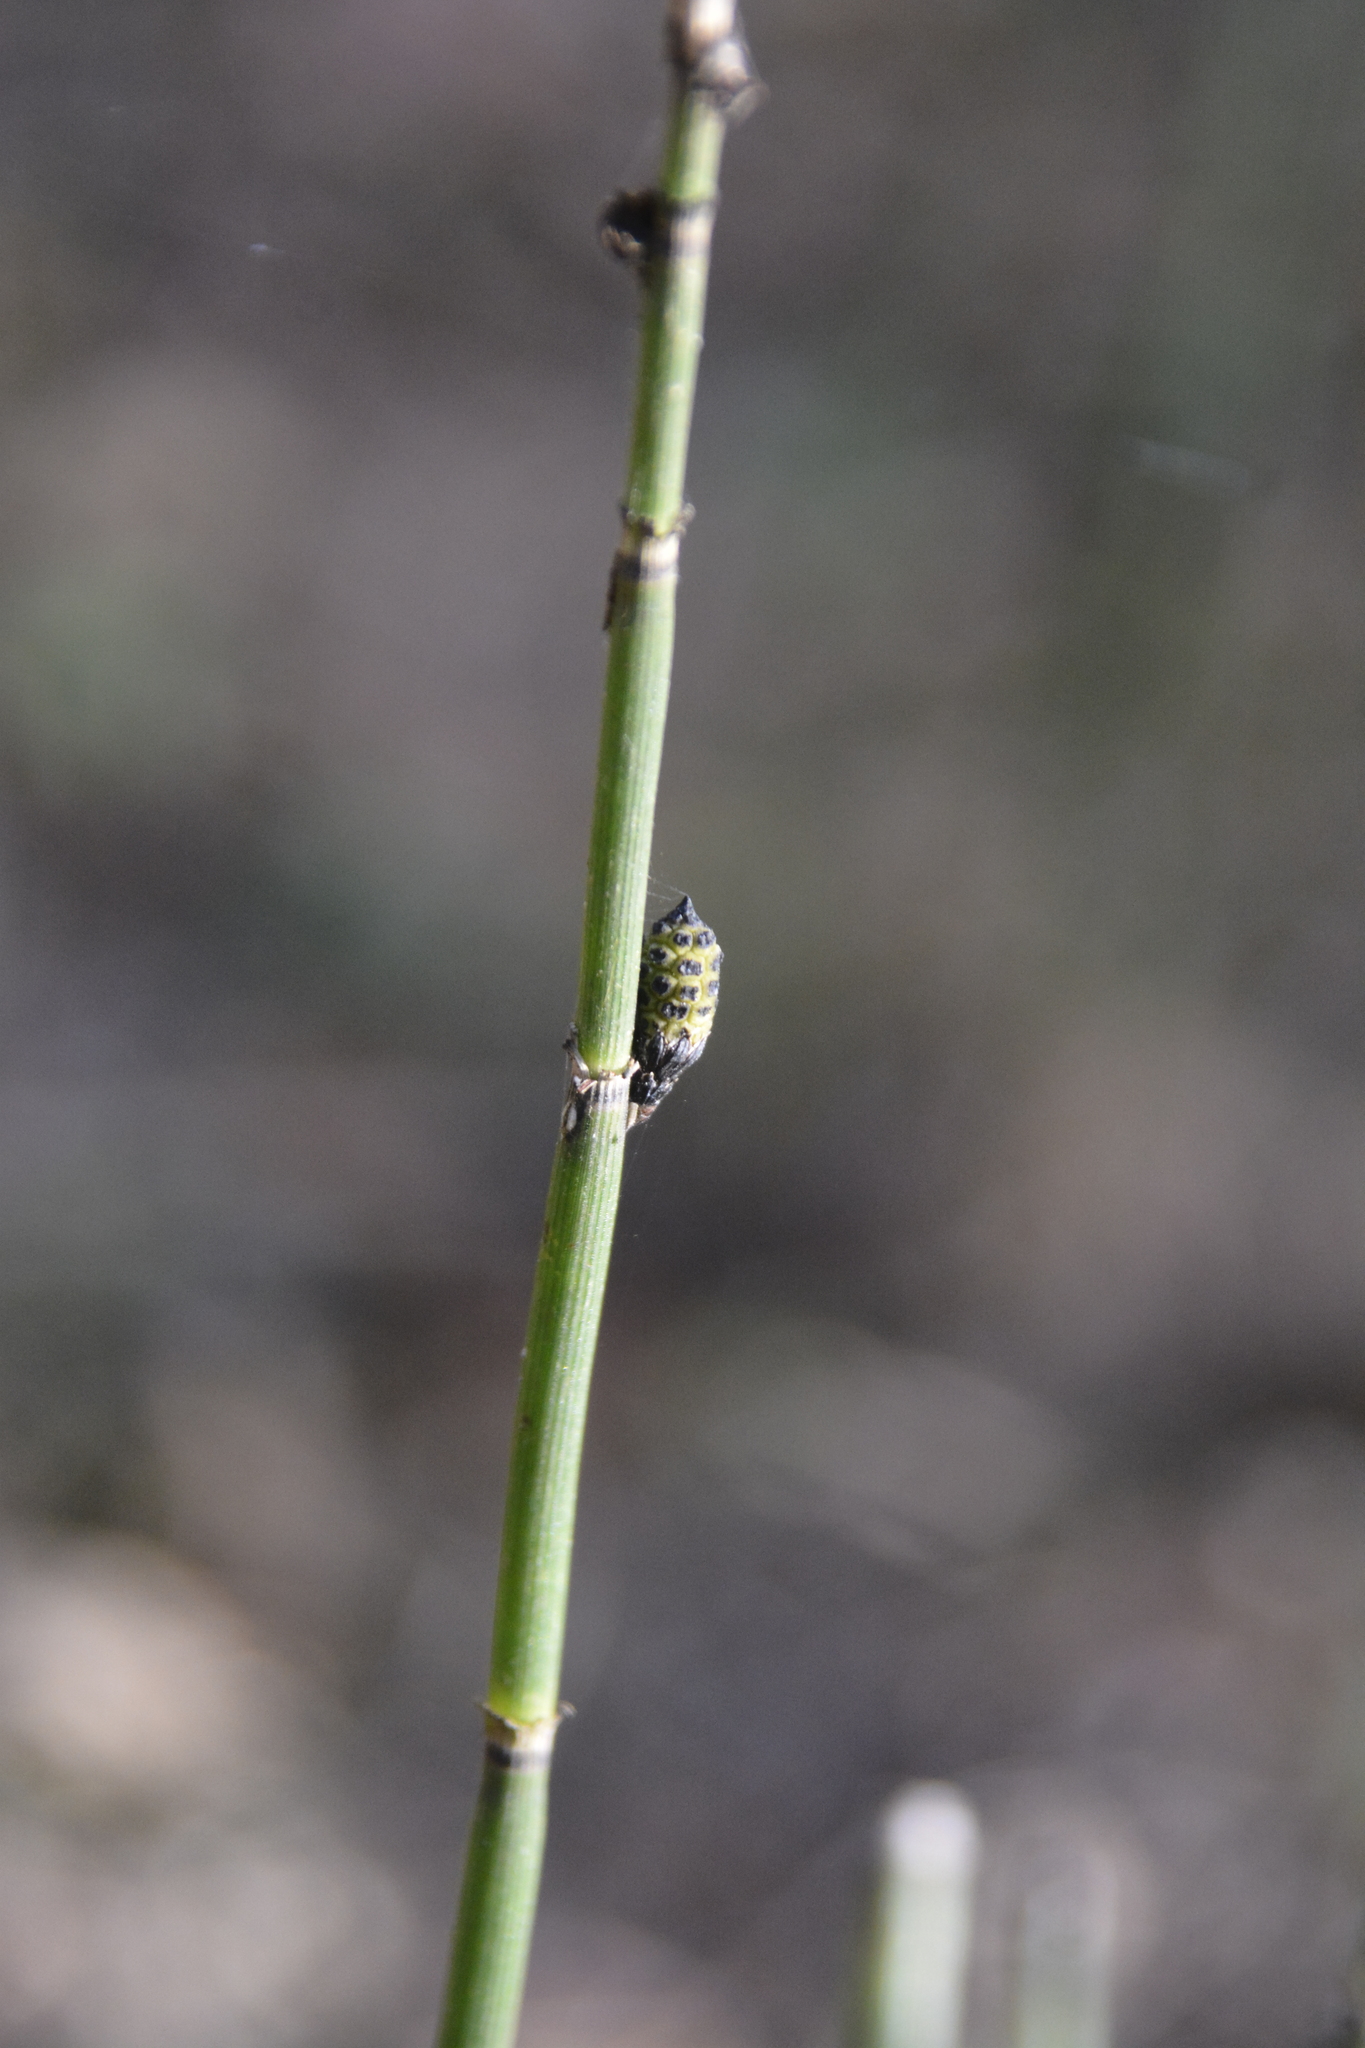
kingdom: Plantae
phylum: Tracheophyta
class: Polypodiopsida
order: Equisetales
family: Equisetaceae
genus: Equisetum
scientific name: Equisetum hyemale
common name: Rough horsetail
